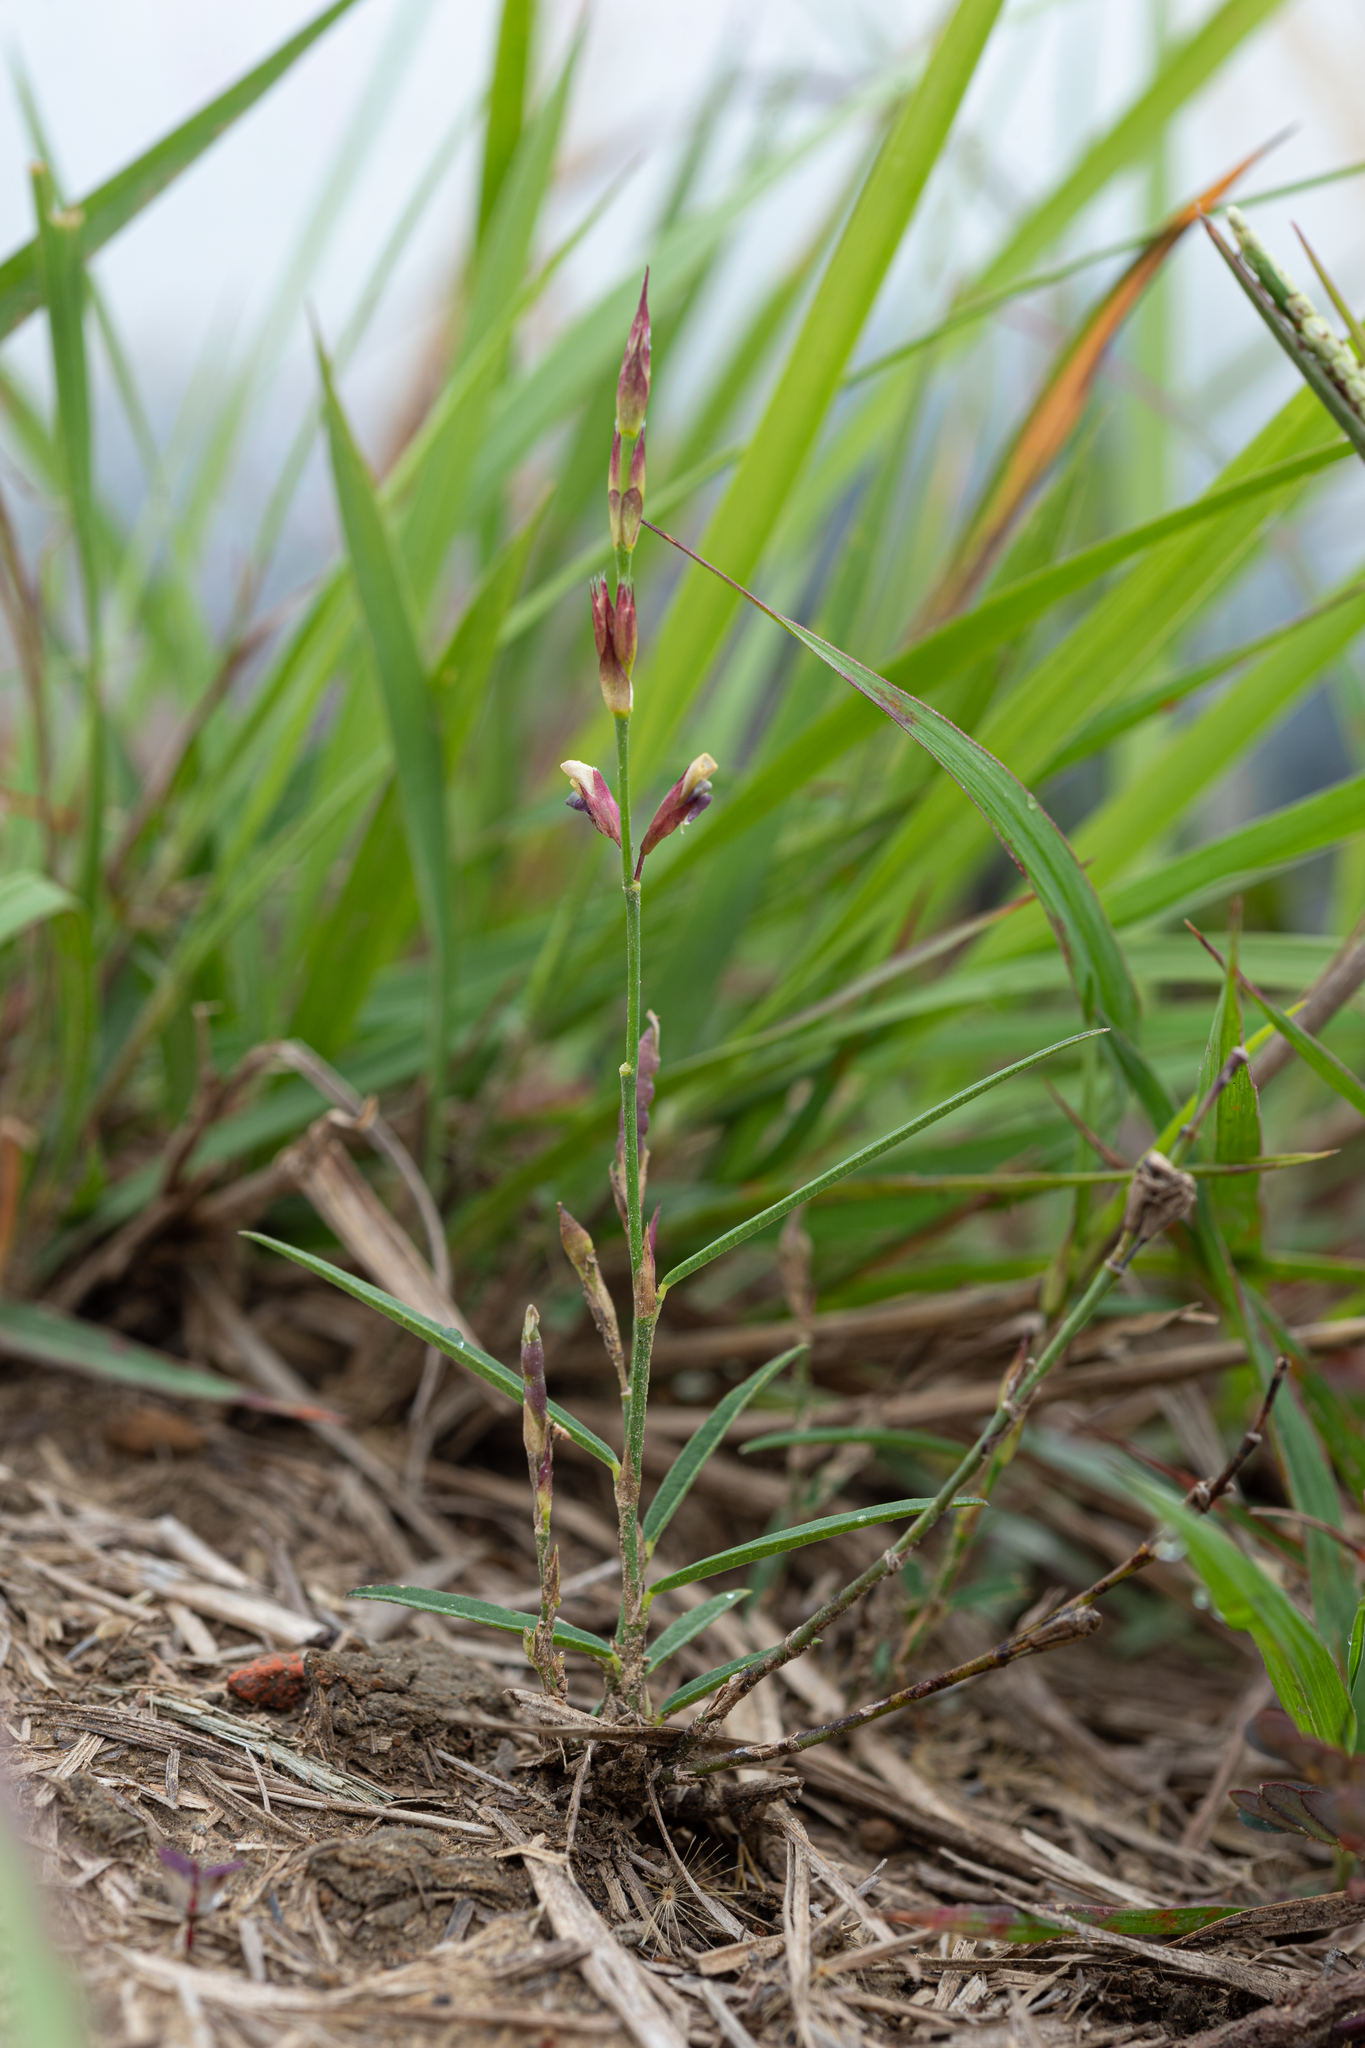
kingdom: Plantae
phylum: Tracheophyta
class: Magnoliopsida
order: Fabales
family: Fabaceae
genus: Alysicarpus
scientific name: Alysicarpus bupleurifolius
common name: Sweet alys
